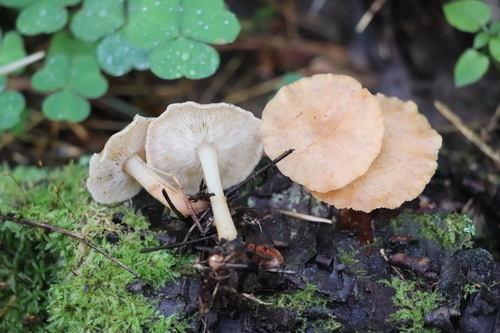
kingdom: Fungi
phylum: Basidiomycota
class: Agaricomycetes
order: Agaricales
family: Omphalotaceae
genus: Gymnopus
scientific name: Gymnopus dryophilus
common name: Penny top
